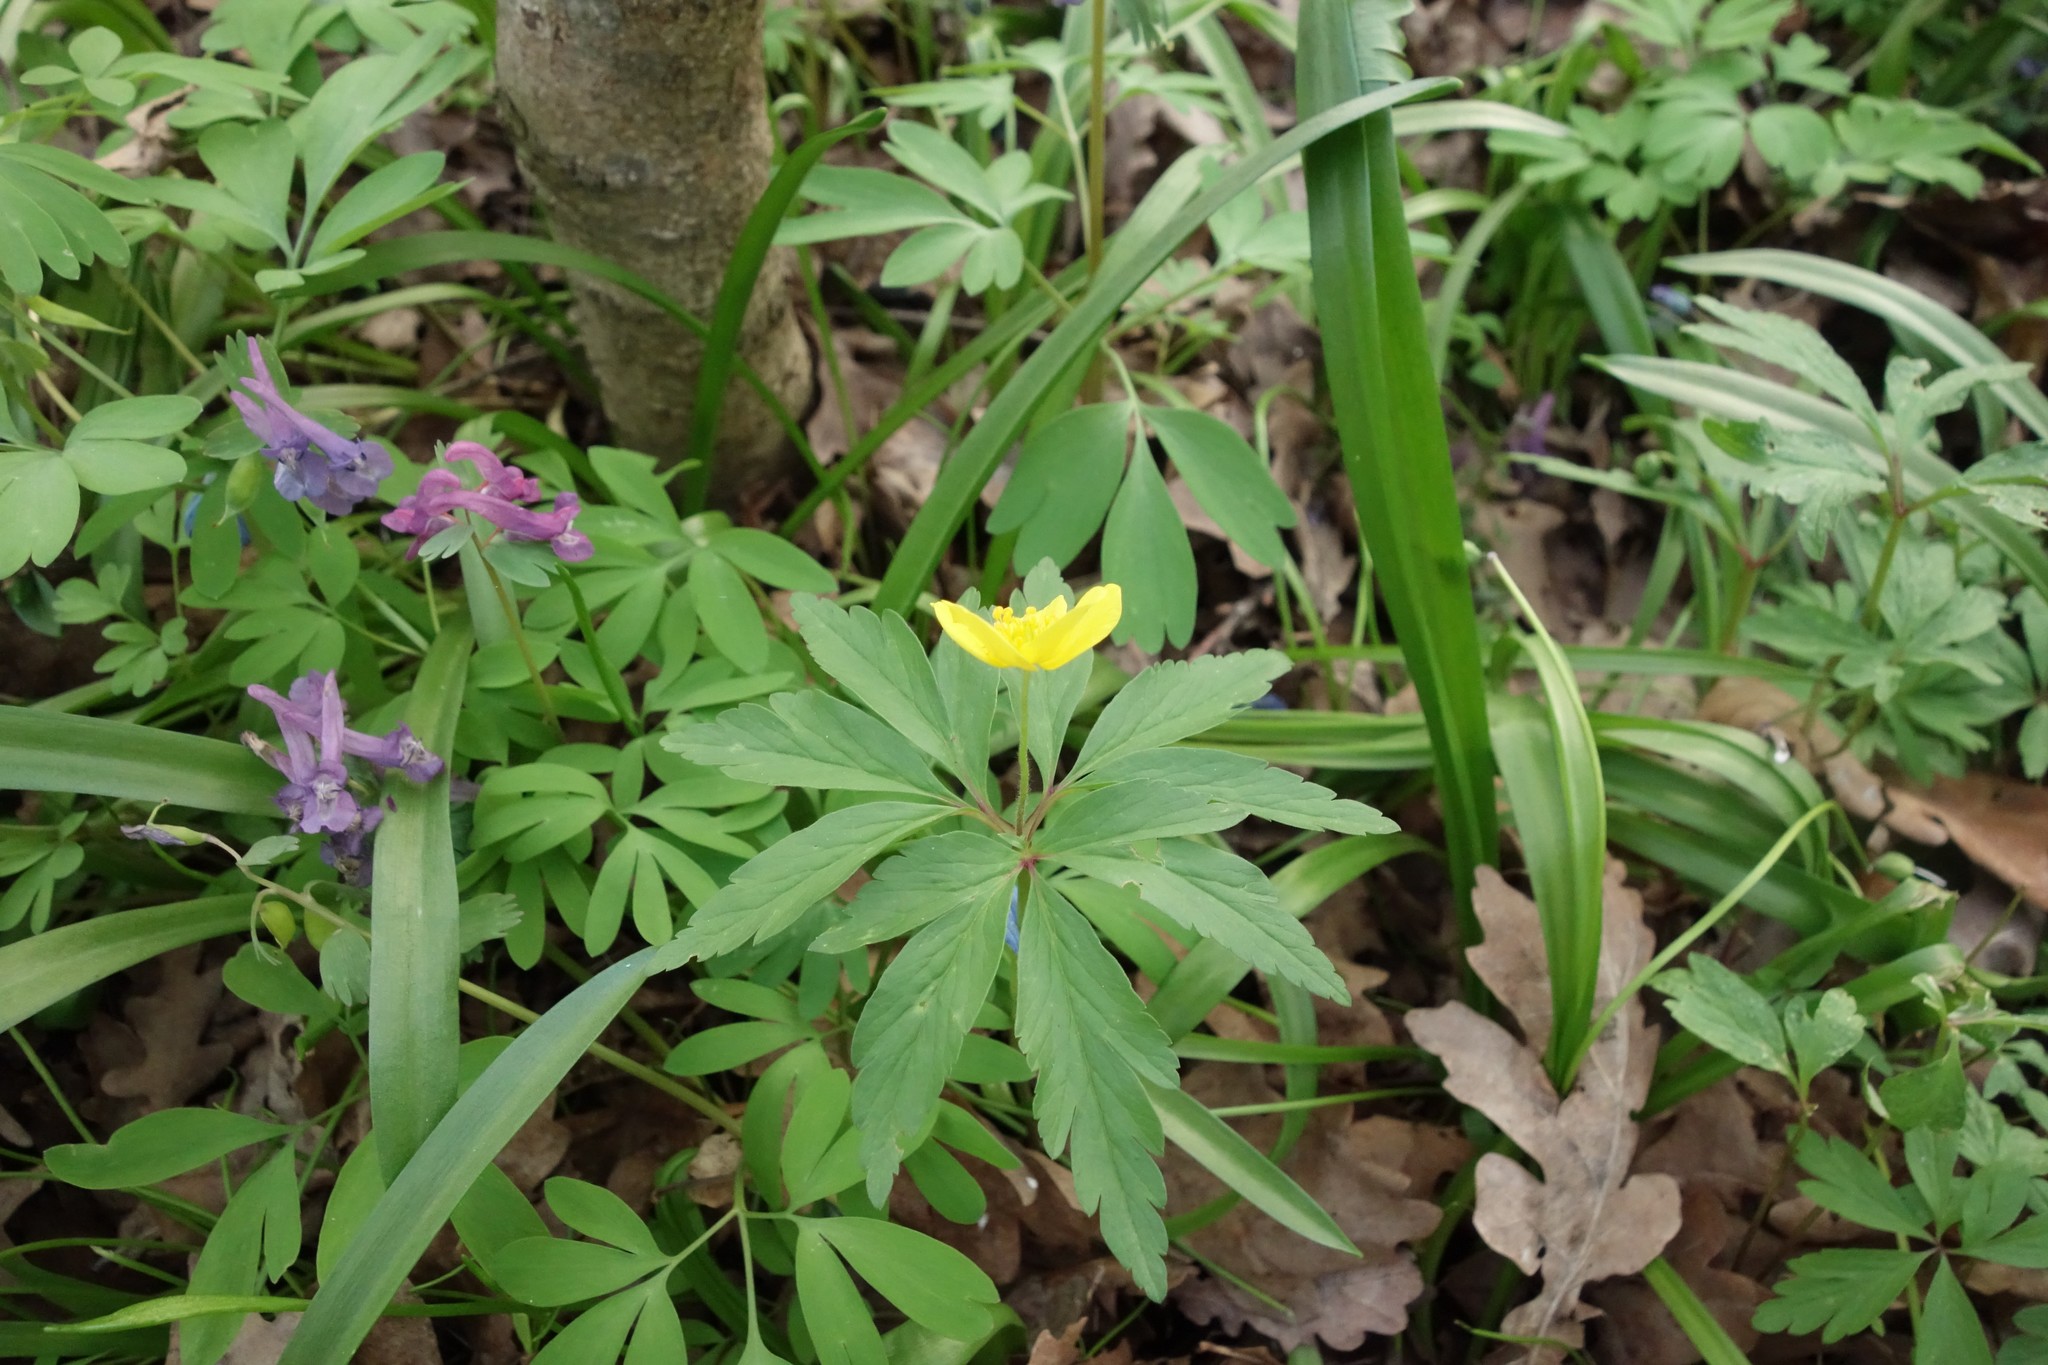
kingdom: Plantae
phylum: Tracheophyta
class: Magnoliopsida
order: Ranunculales
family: Ranunculaceae
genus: Anemone
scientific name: Anemone ranunculoides
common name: Yellow anemone
